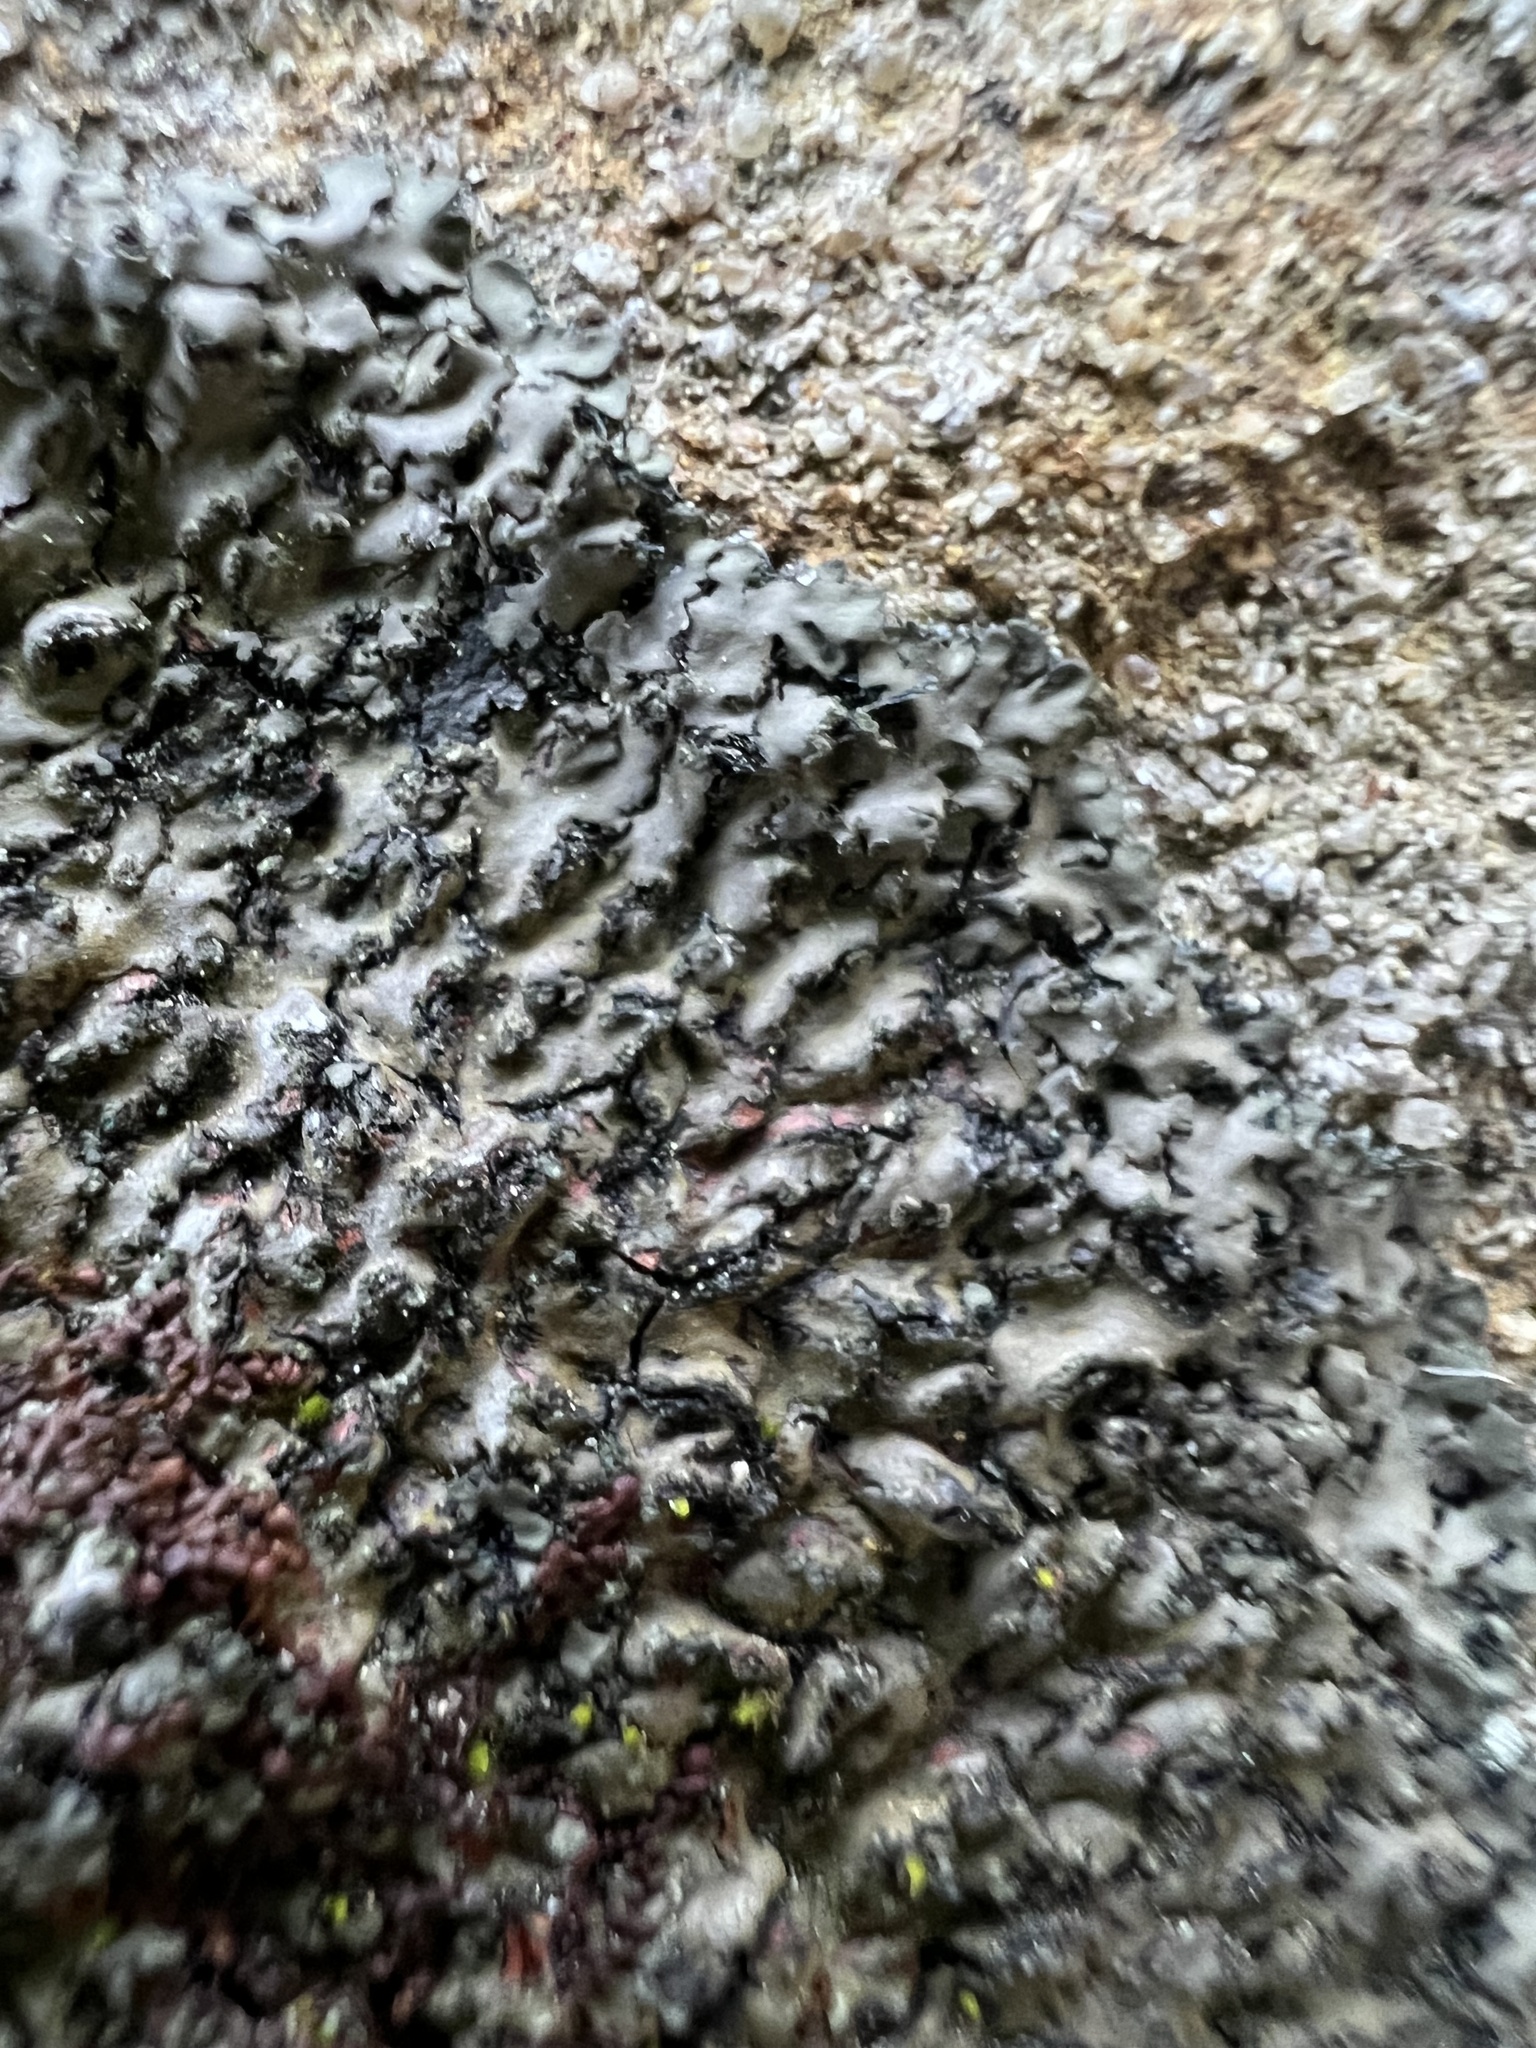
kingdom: Fungi
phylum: Ascomycota
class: Lecanoromycetes
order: Caliciales
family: Physciaceae
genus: Phaeophyscia
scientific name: Phaeophyscia rubropulchra
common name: Orange-cored shadow lichen
